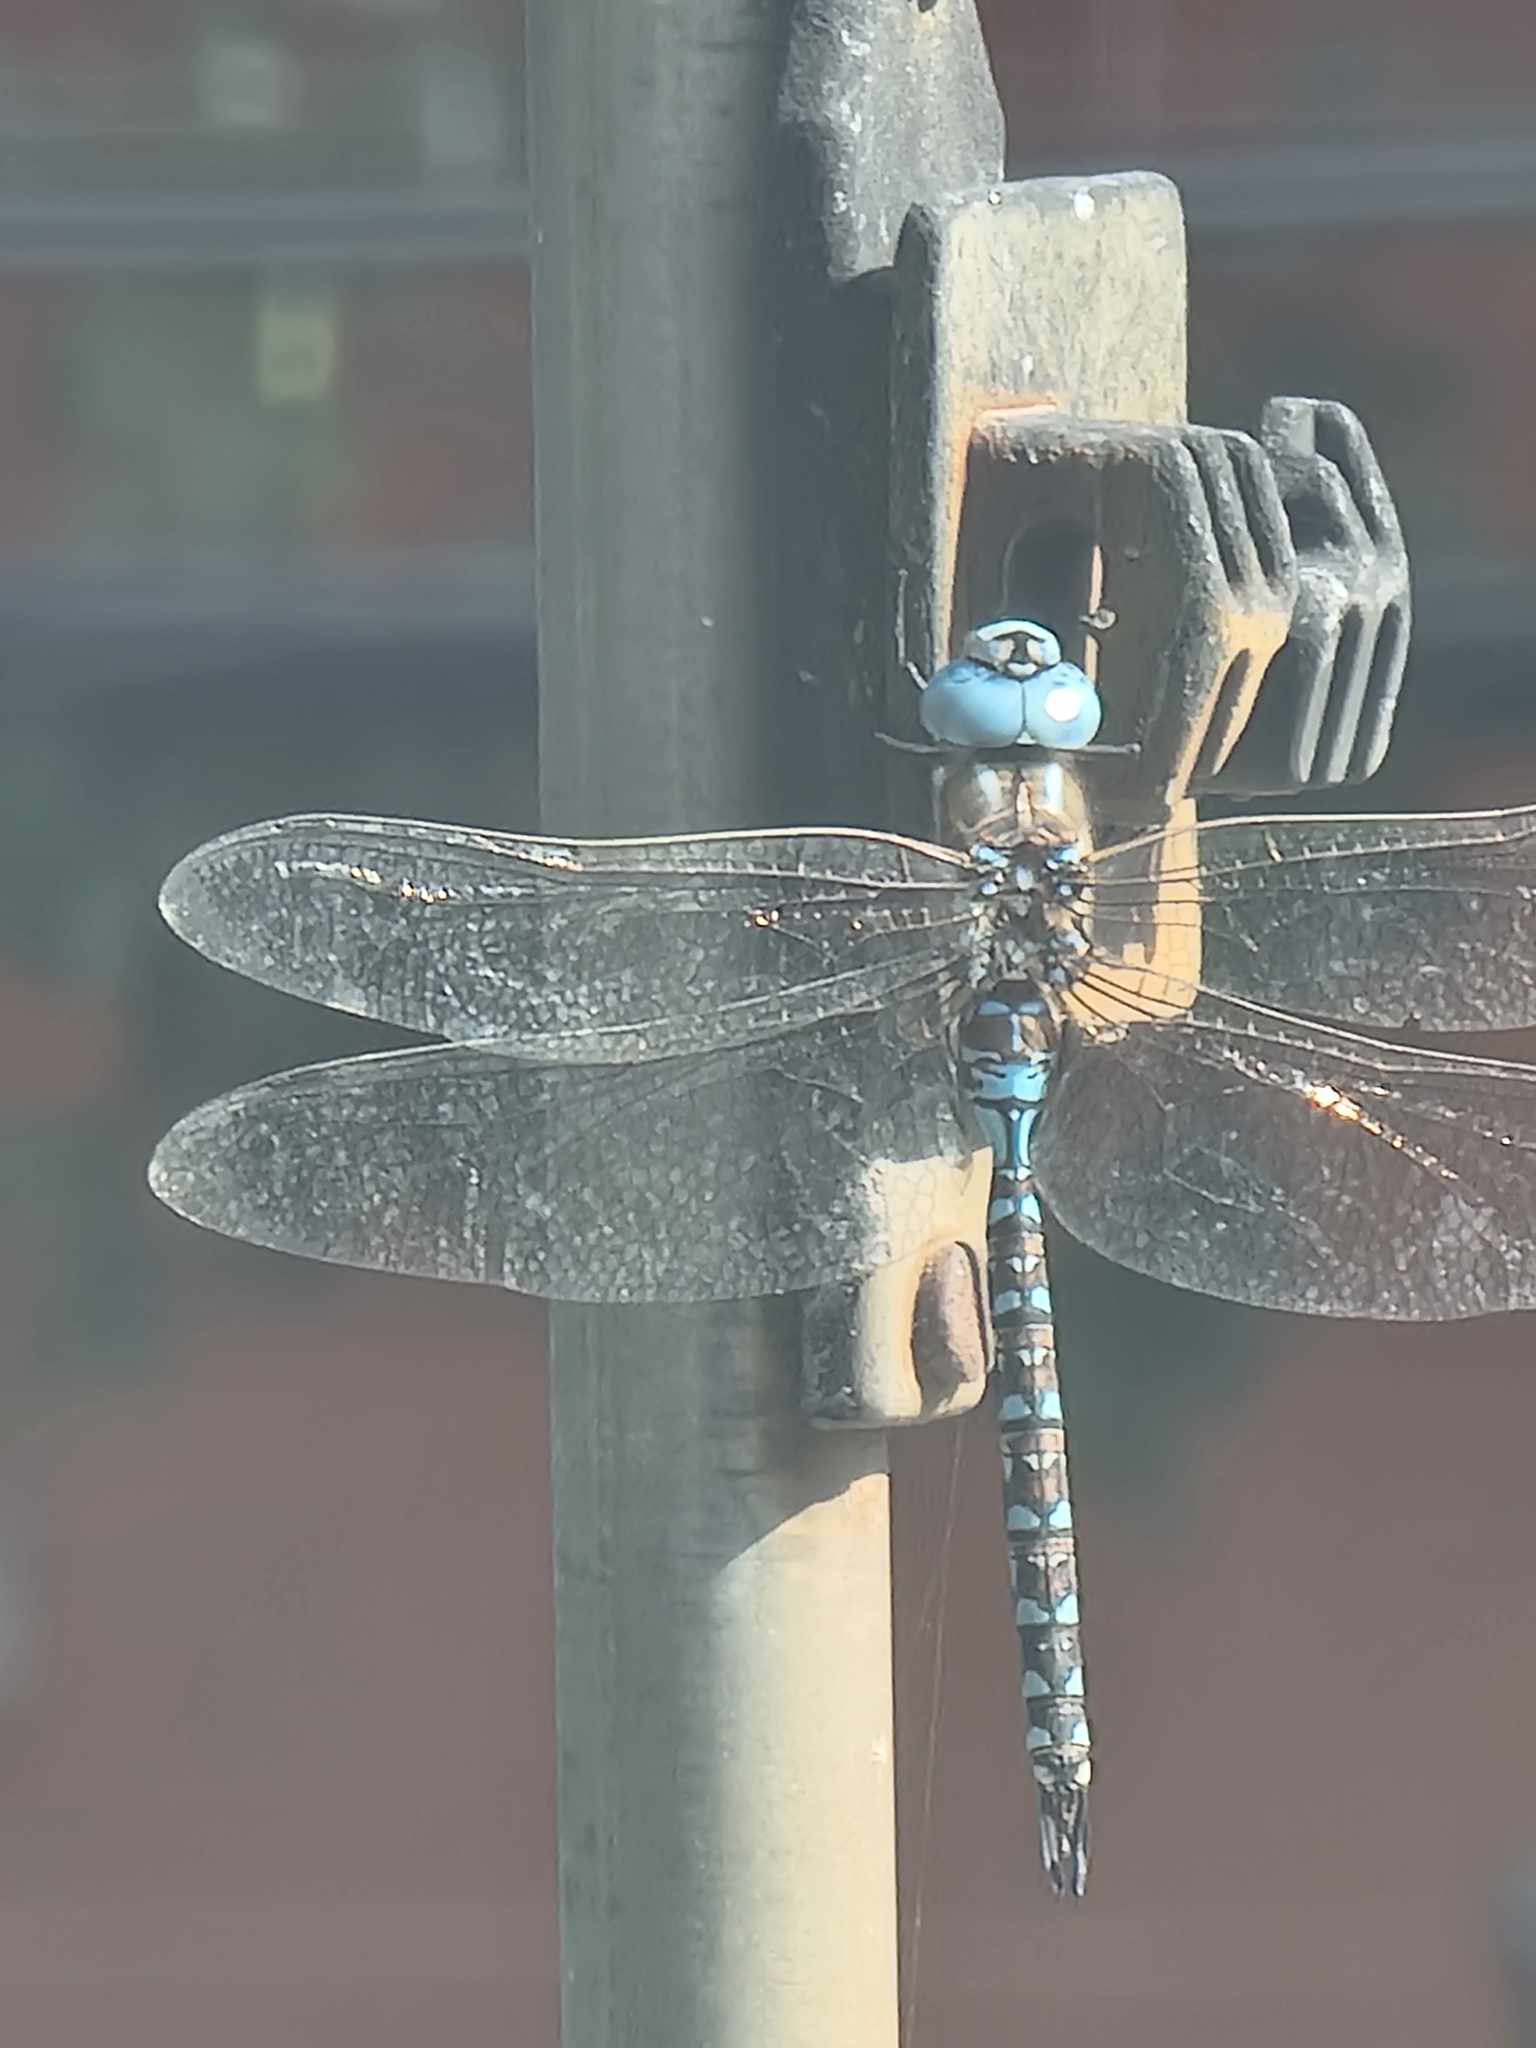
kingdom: Animalia
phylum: Arthropoda
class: Insecta
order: Odonata
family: Aeshnidae
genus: Rhionaeschna
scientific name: Rhionaeschna multicolor
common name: Blue-eyed darner
